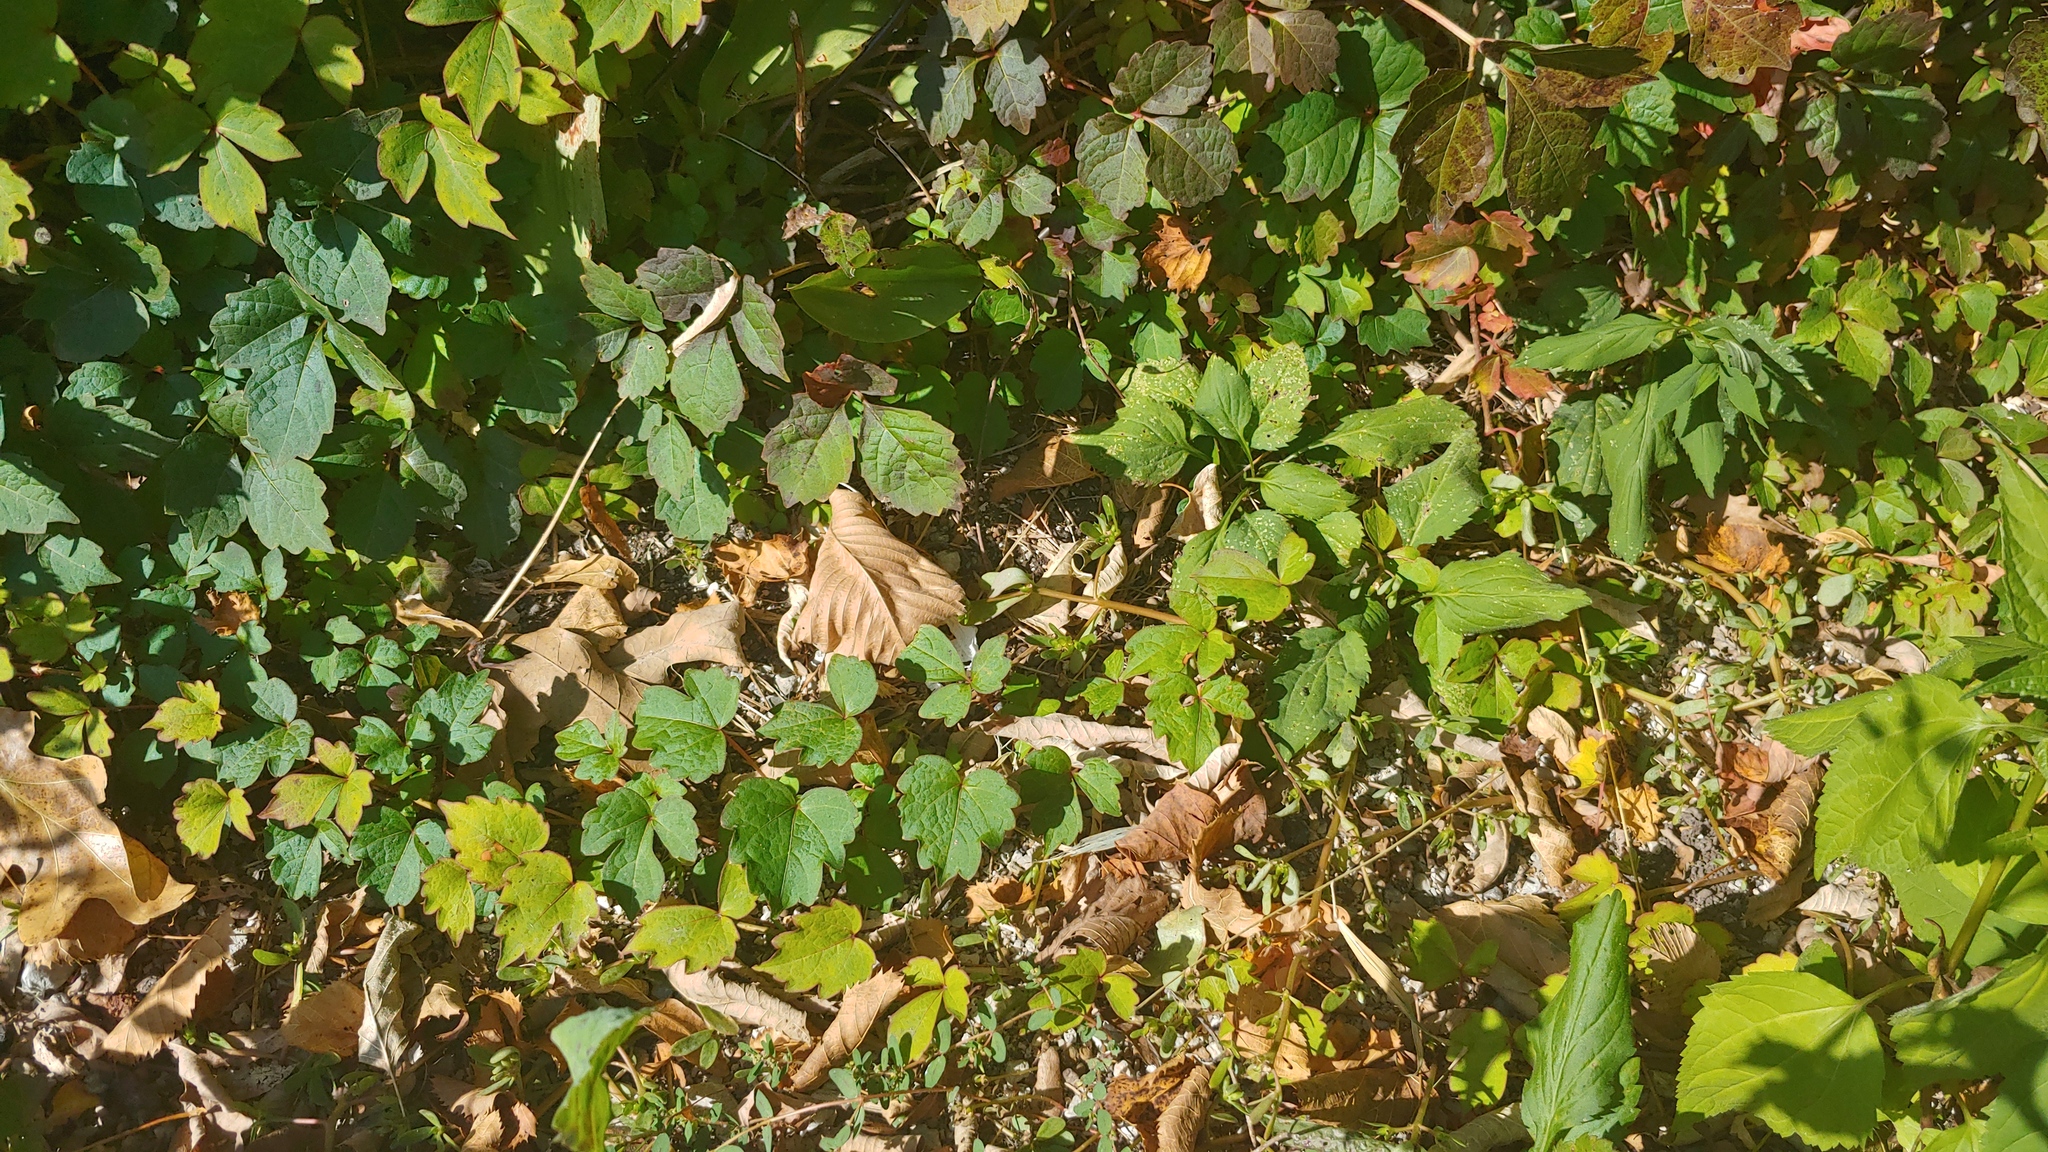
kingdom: Plantae
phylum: Tracheophyta
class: Magnoliopsida
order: Vitales
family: Vitaceae
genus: Parthenocissus
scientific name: Parthenocissus tricuspidata
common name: Boston ivy
